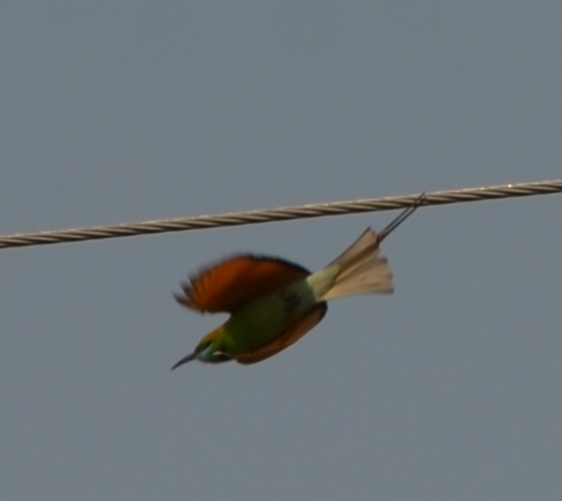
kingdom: Animalia
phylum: Chordata
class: Aves
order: Coraciiformes
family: Meropidae
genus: Merops
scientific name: Merops orientalis
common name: Green bee-eater
